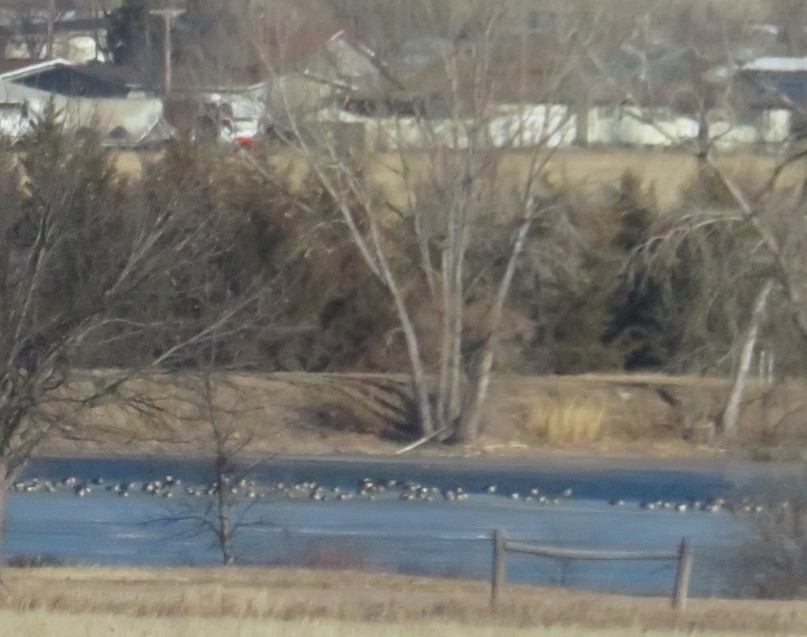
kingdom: Animalia
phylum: Chordata
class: Aves
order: Anseriformes
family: Anatidae
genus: Branta
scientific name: Branta canadensis
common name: Canada goose
